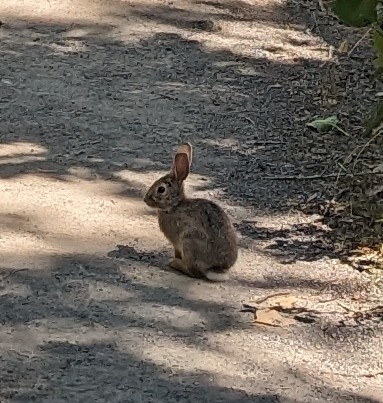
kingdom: Animalia
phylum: Chordata
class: Mammalia
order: Lagomorpha
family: Leporidae
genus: Sylvilagus
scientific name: Sylvilagus nuttallii
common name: Mountain cottontail
